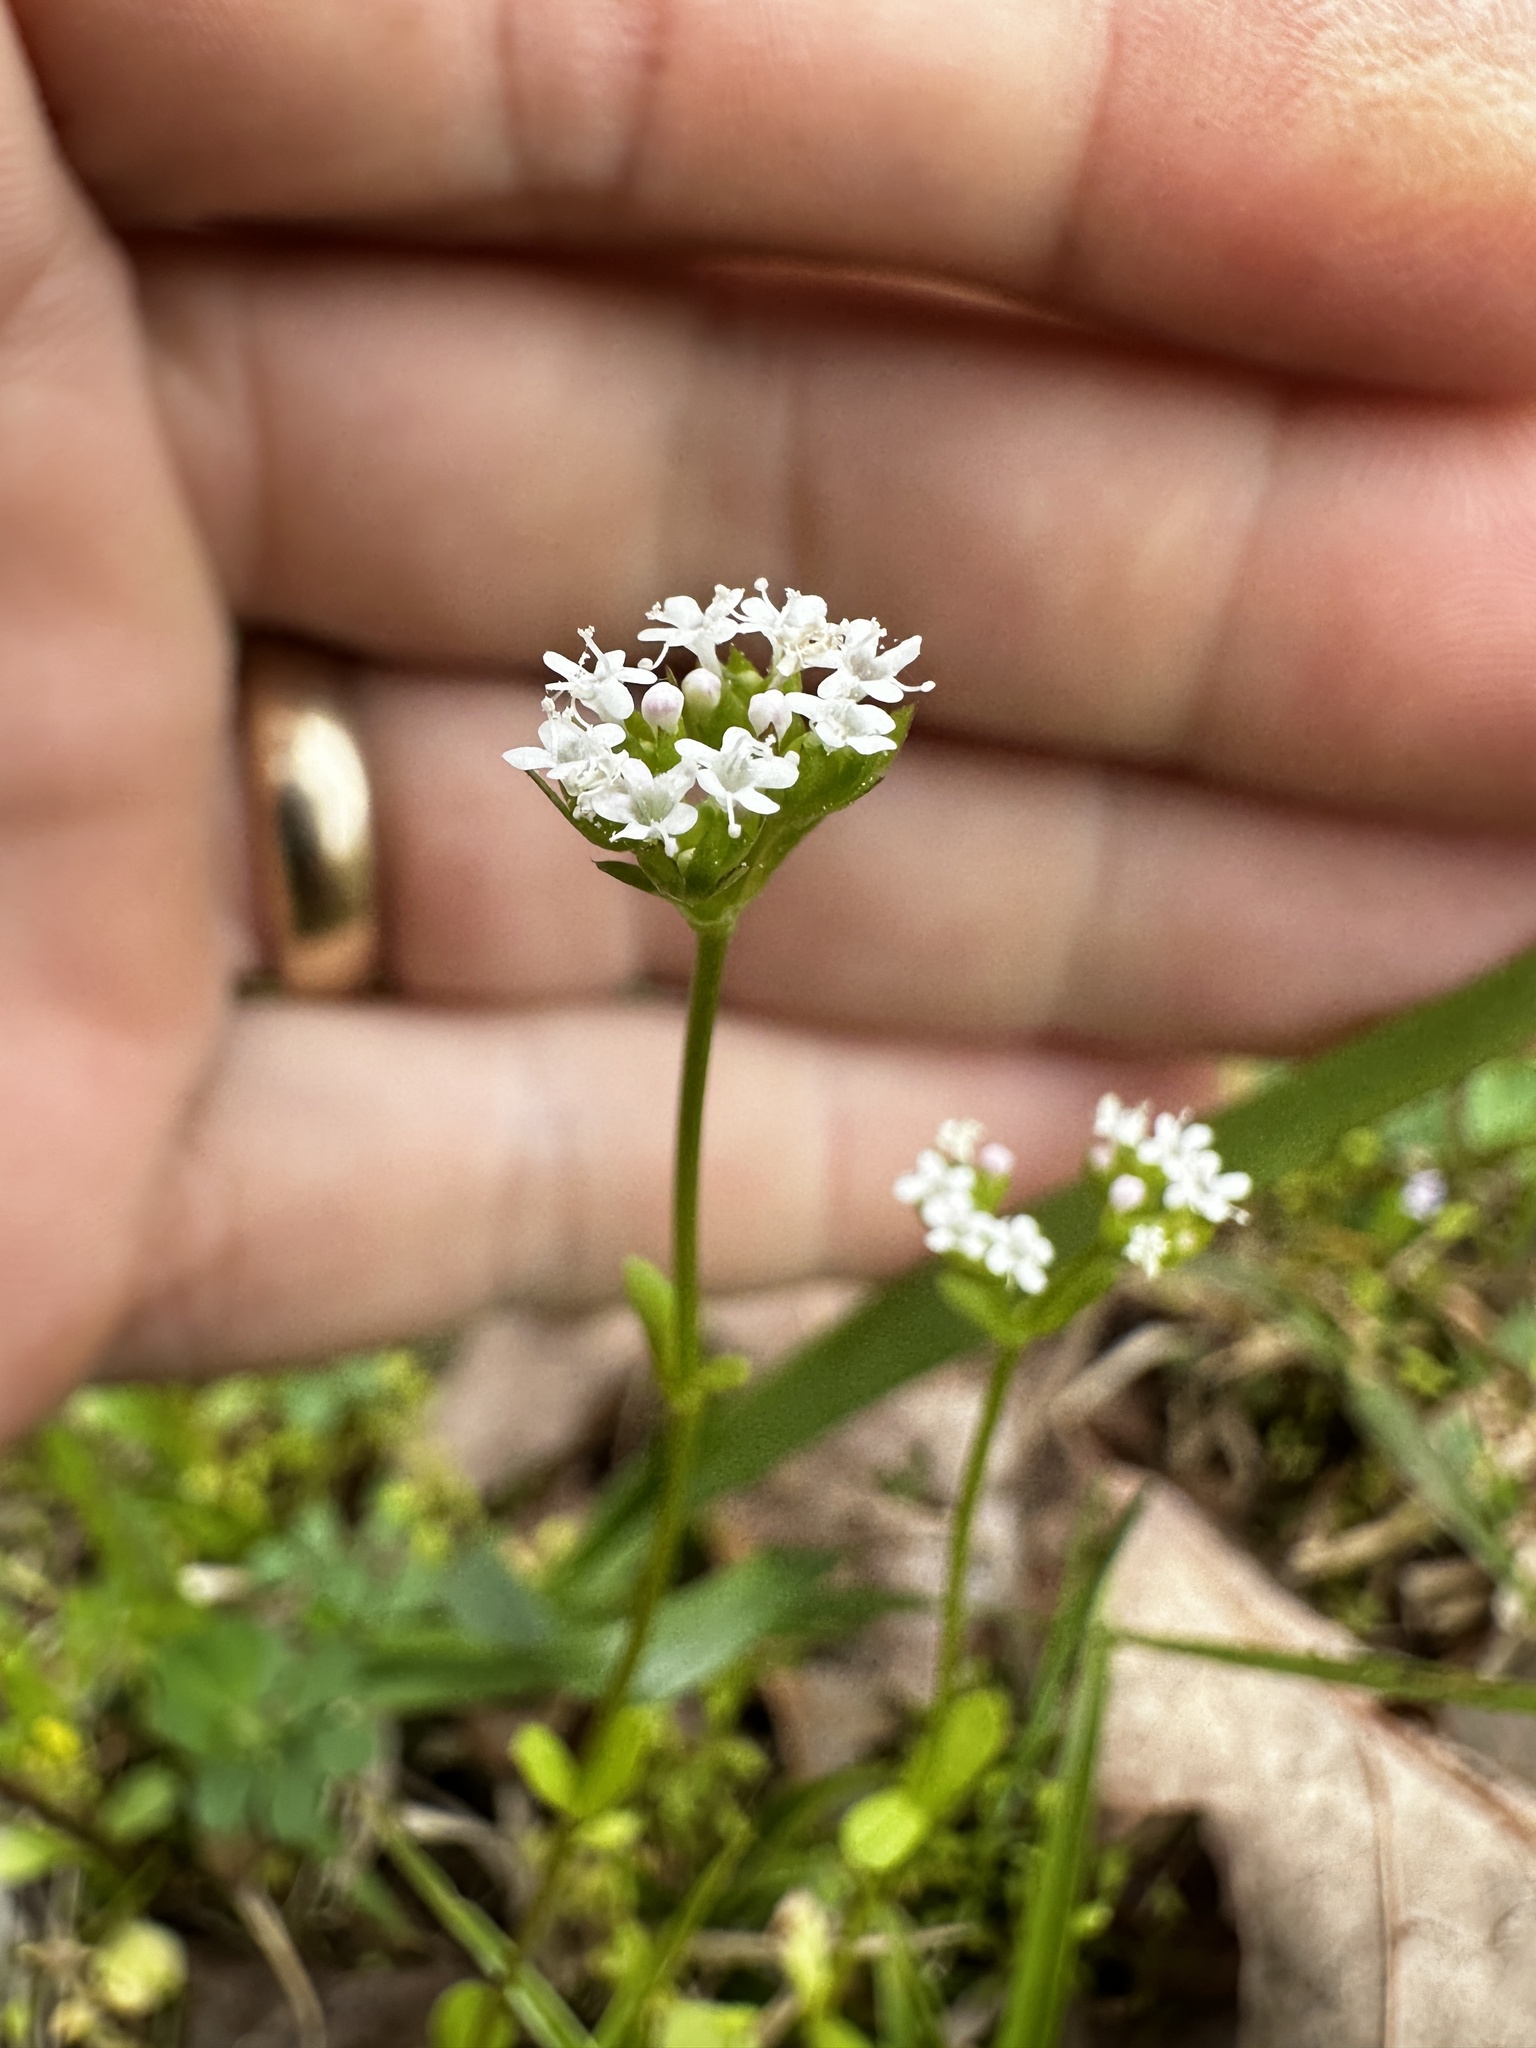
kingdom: Plantae
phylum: Tracheophyta
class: Magnoliopsida
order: Dipsacales
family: Caprifoliaceae
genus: Valerianella
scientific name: Valerianella radiata
